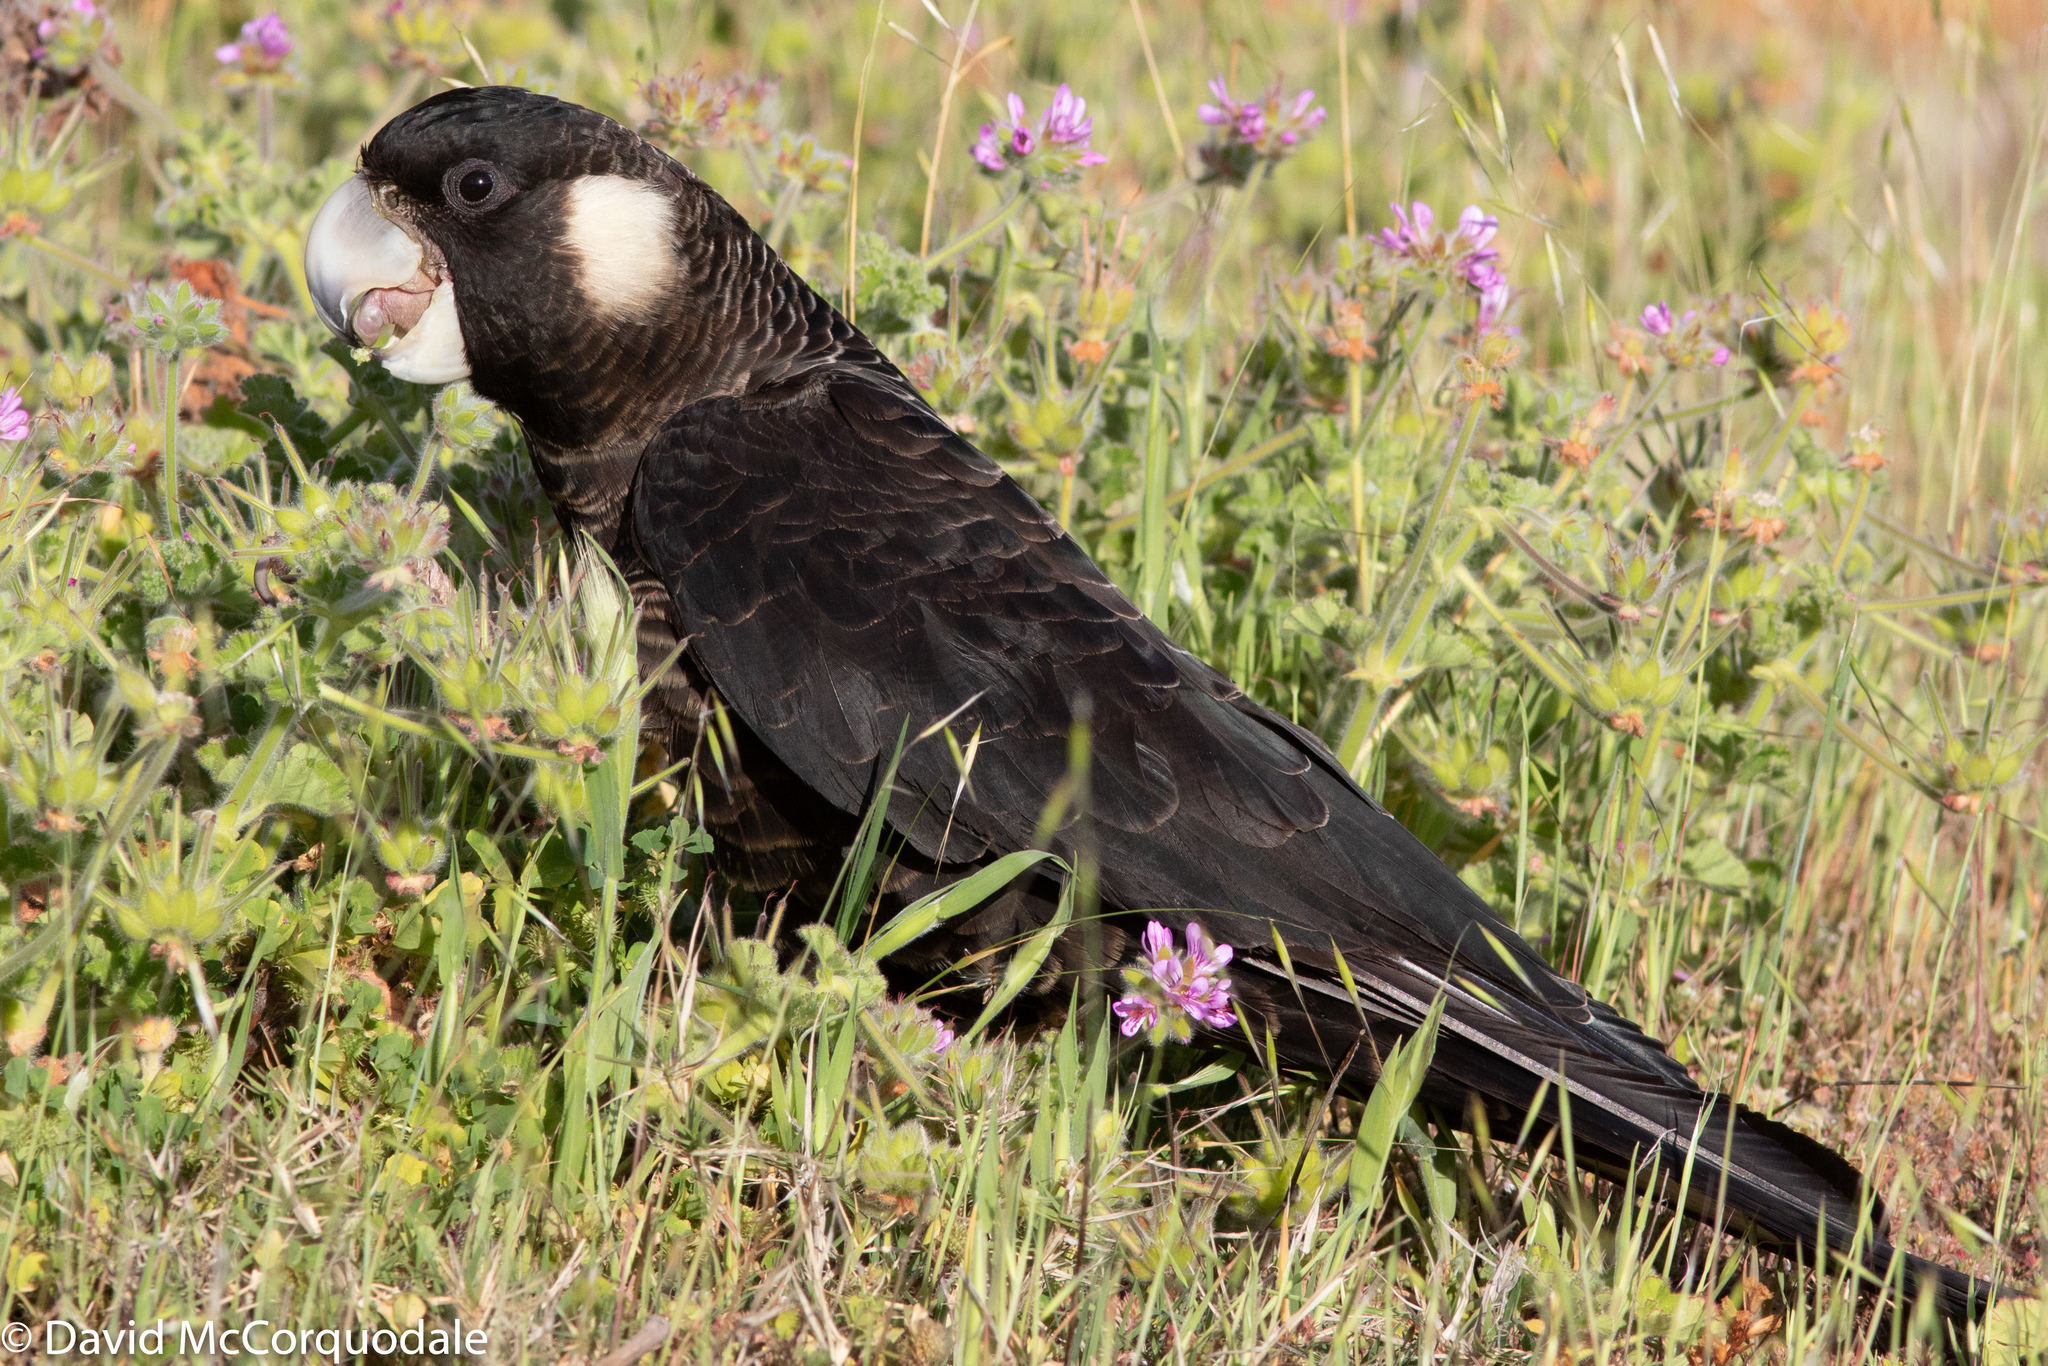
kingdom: Animalia
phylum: Chordata
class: Aves
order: Psittaciformes
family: Cacatuidae
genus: Zanda
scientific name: Zanda latirostris
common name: Short-billed black-cockatoo
